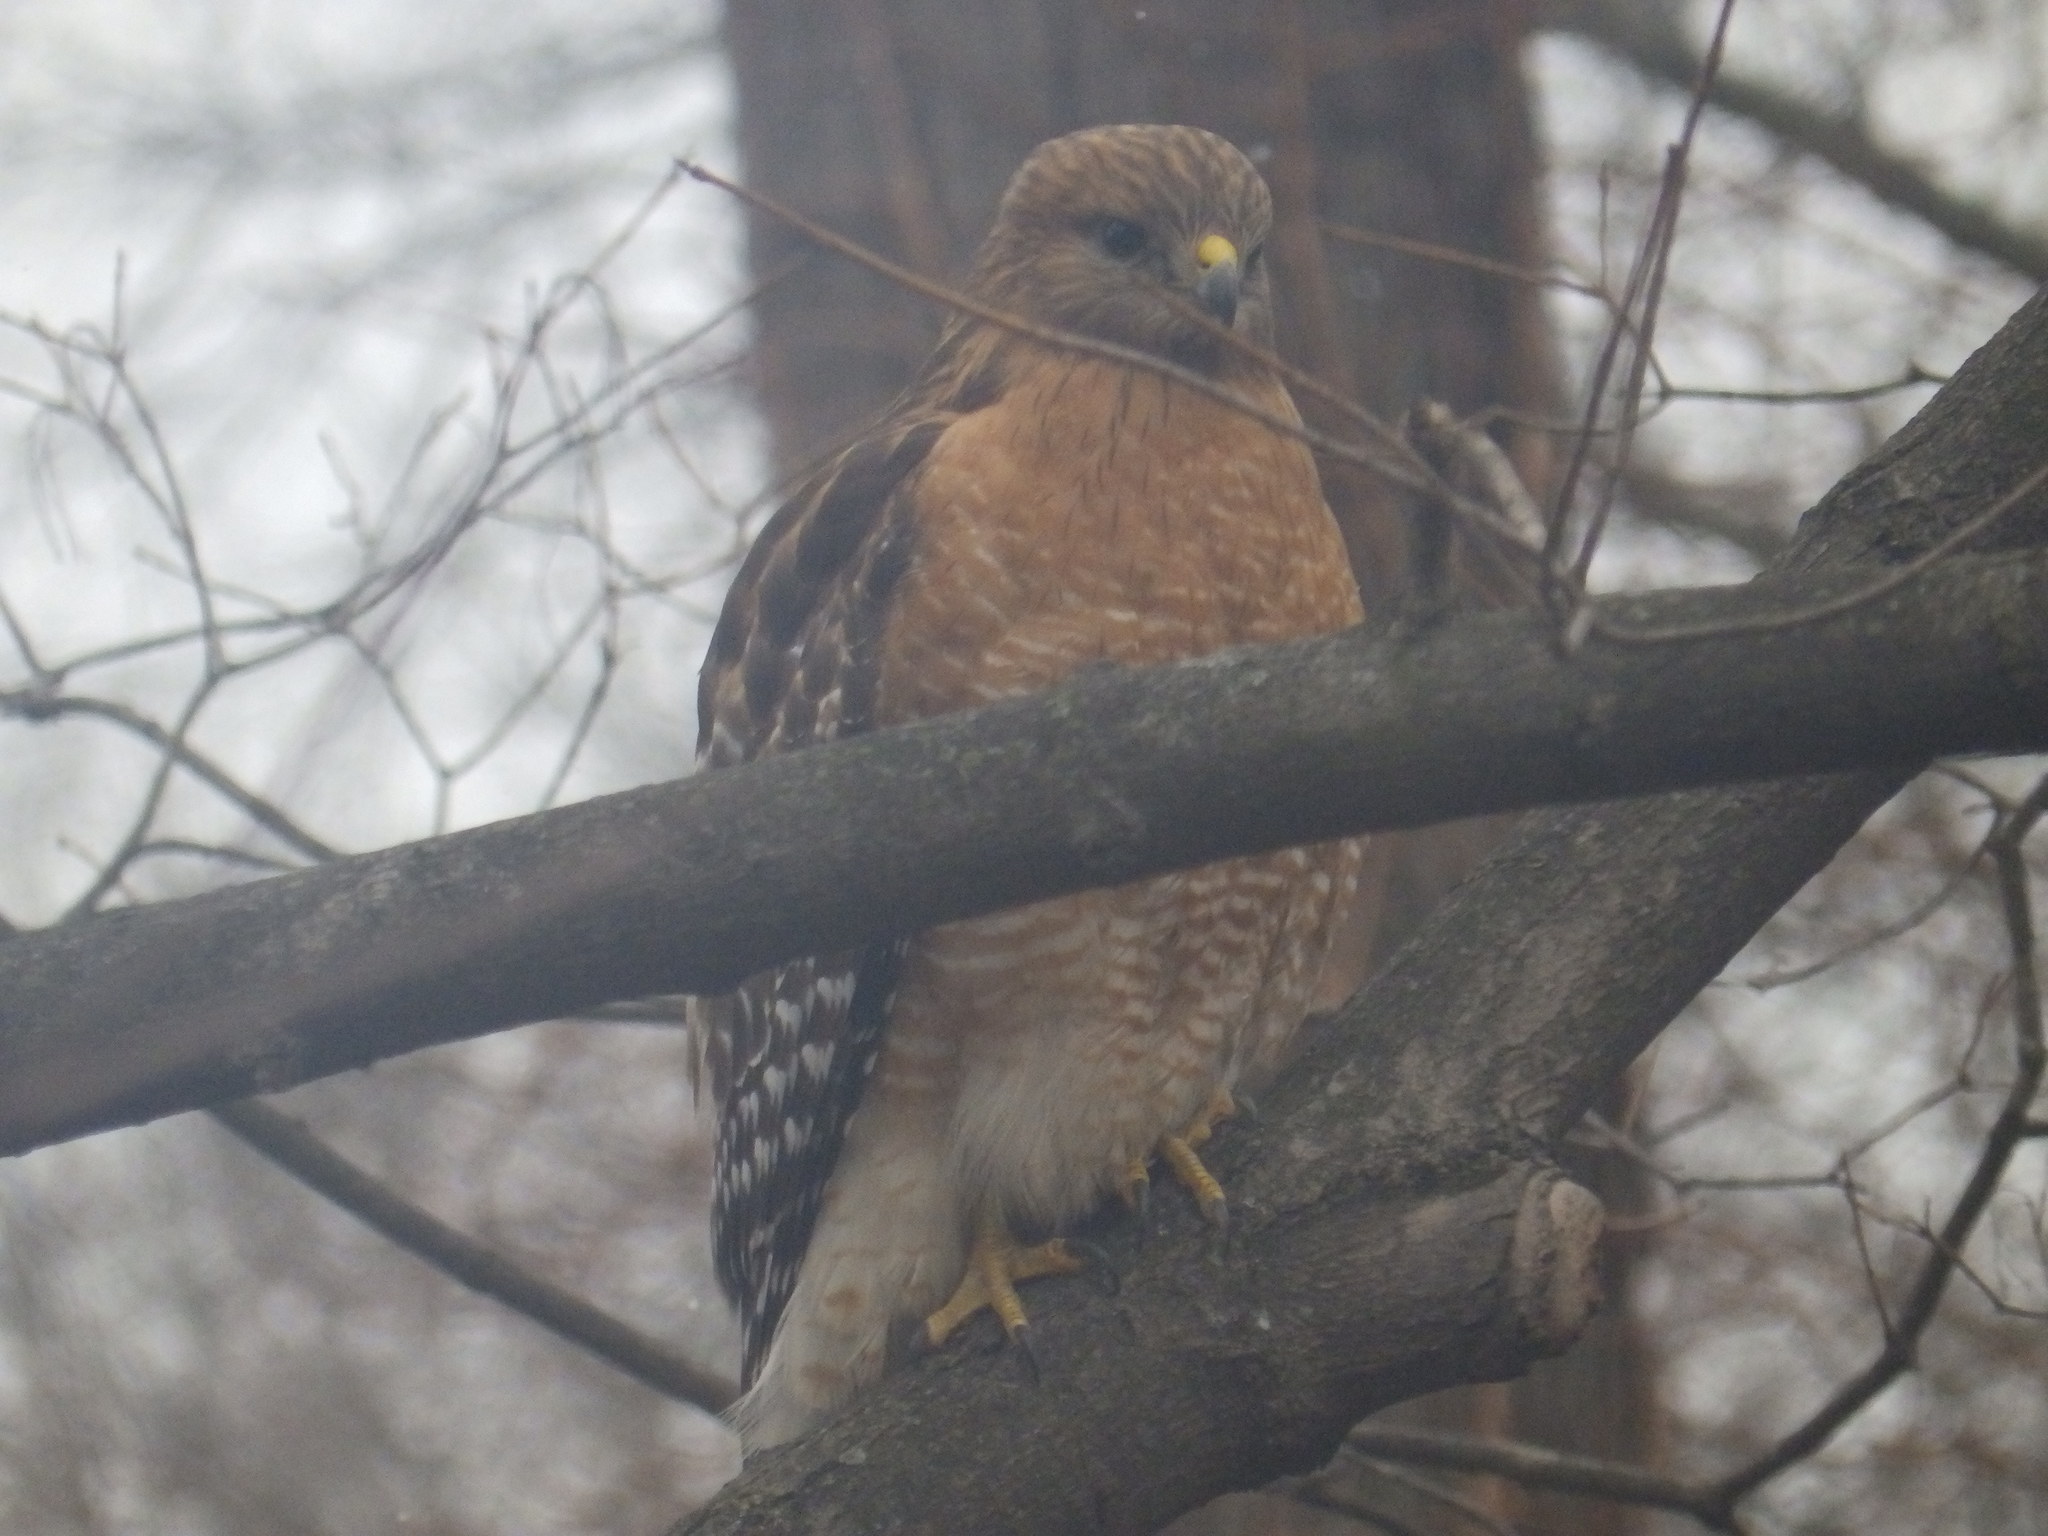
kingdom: Animalia
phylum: Chordata
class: Aves
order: Accipitriformes
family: Accipitridae
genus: Buteo
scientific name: Buteo lineatus
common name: Red-shouldered hawk
